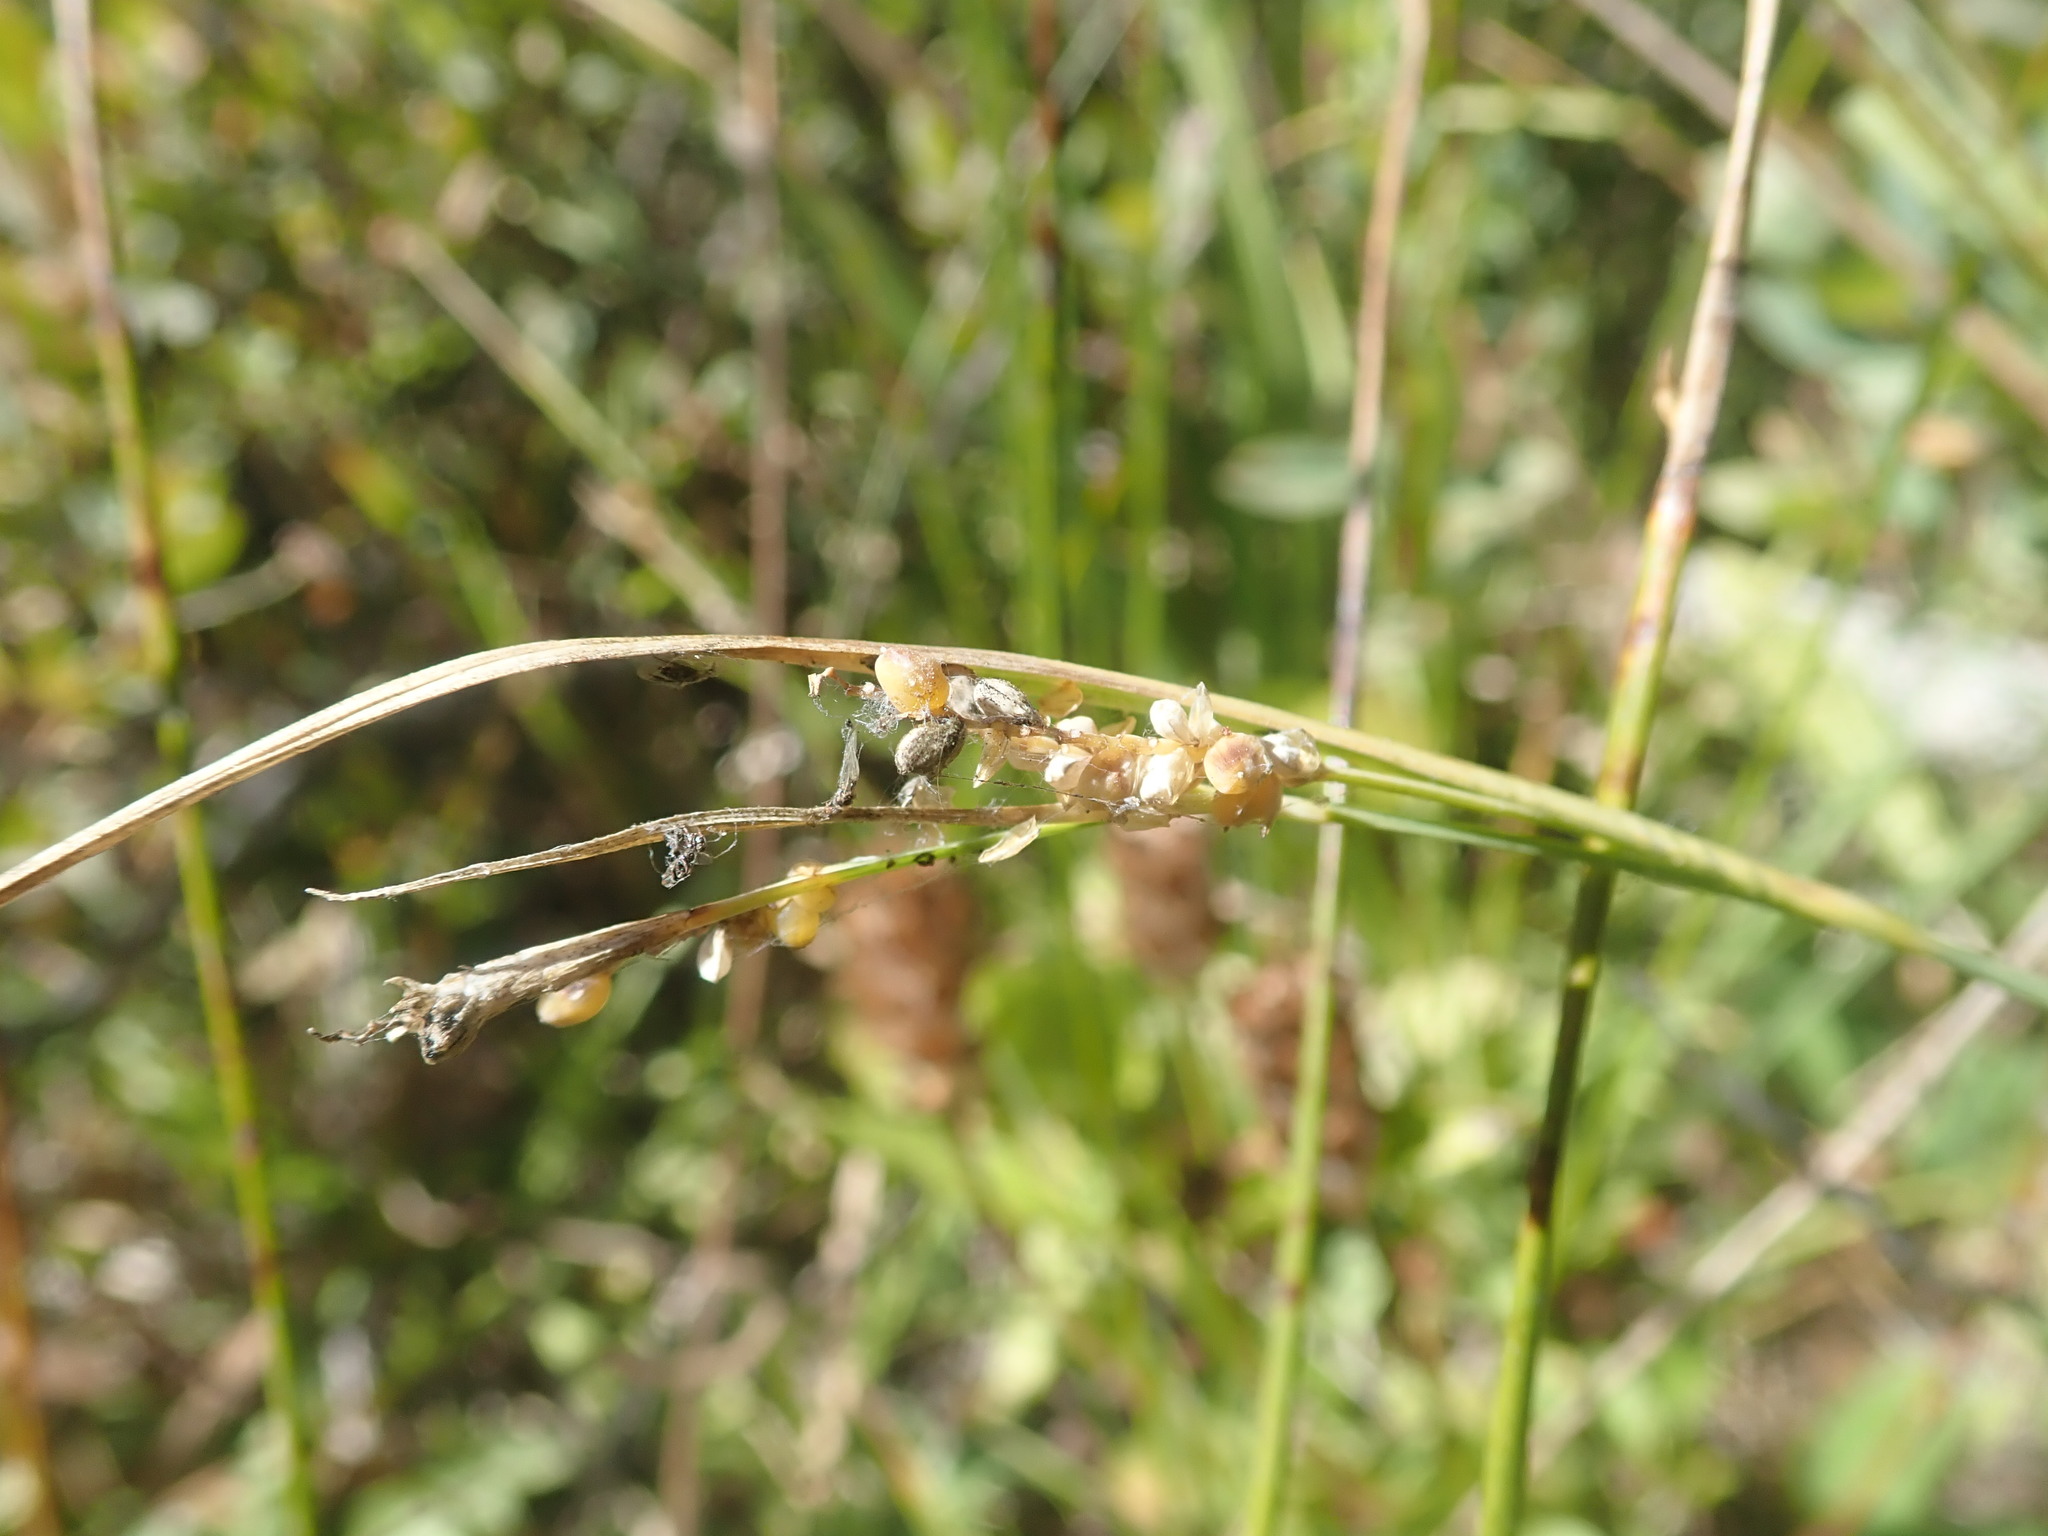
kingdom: Plantae
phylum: Tracheophyta
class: Liliopsida
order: Poales
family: Cyperaceae
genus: Carex
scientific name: Carex aurea
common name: Golden sedge
